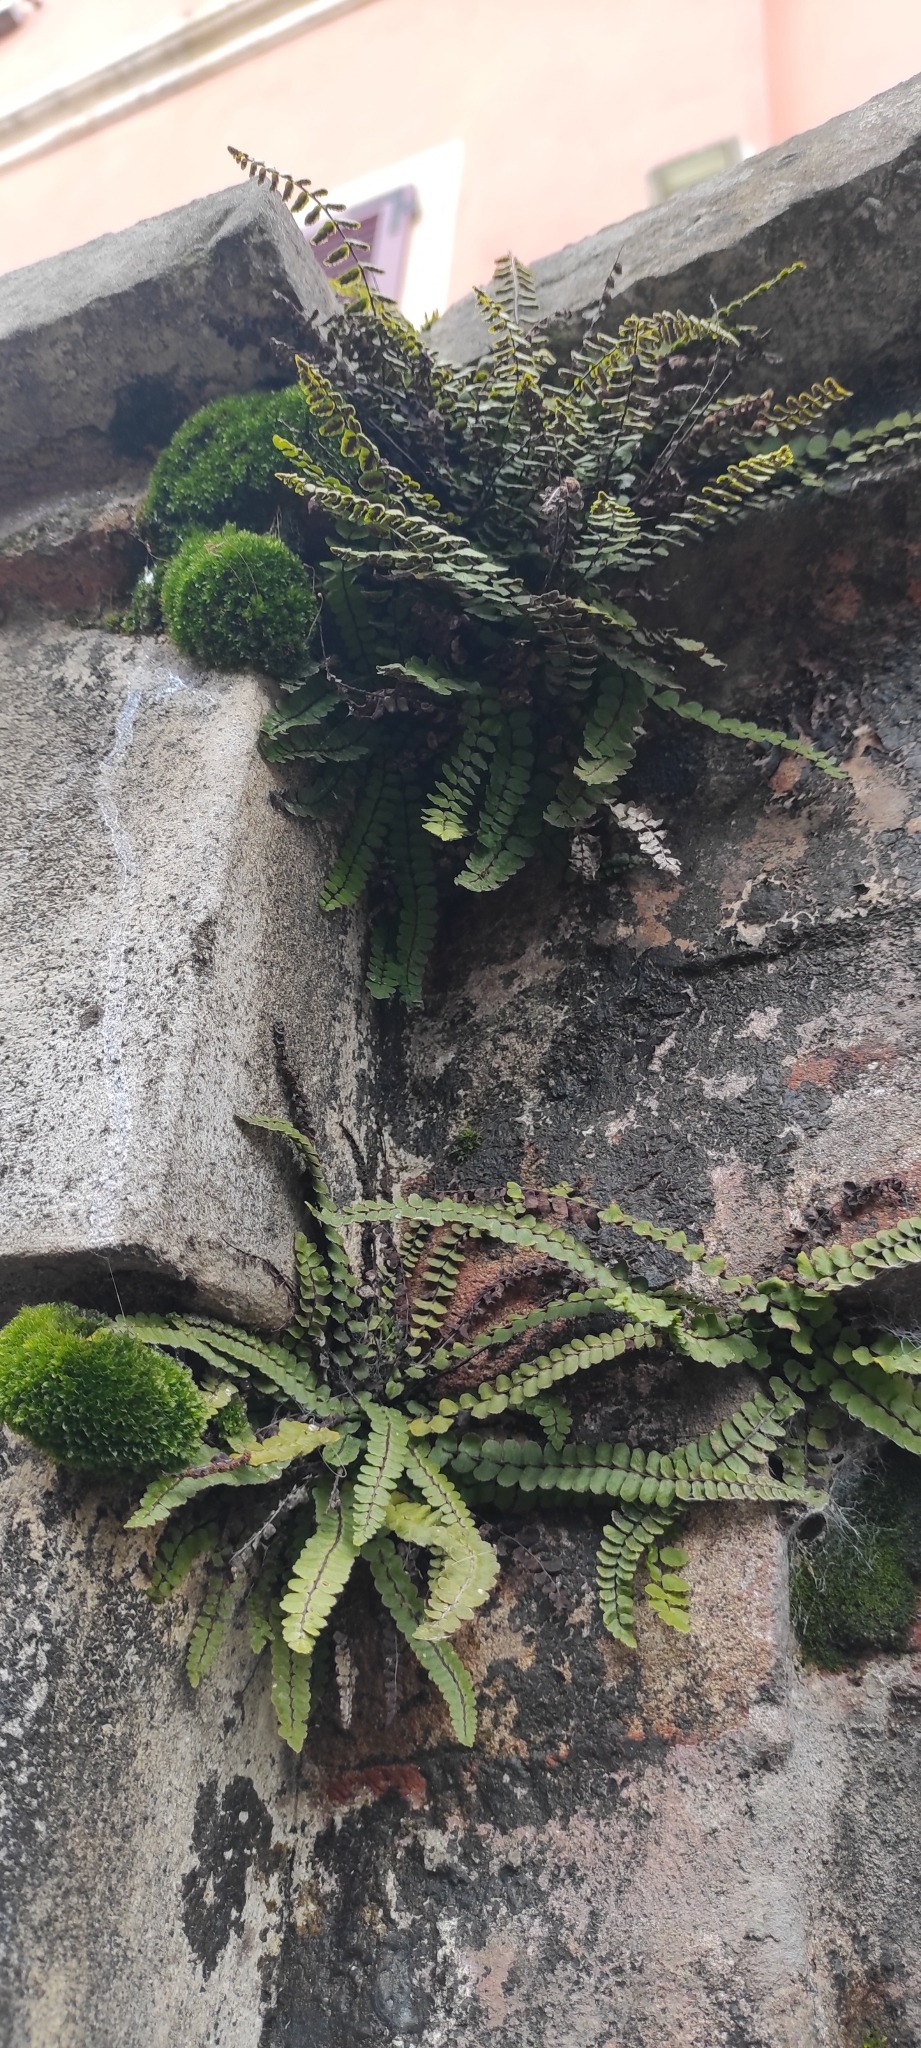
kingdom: Plantae
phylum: Tracheophyta
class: Polypodiopsida
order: Polypodiales
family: Aspleniaceae
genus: Asplenium
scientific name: Asplenium trichomanes
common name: Maidenhair spleenwort
